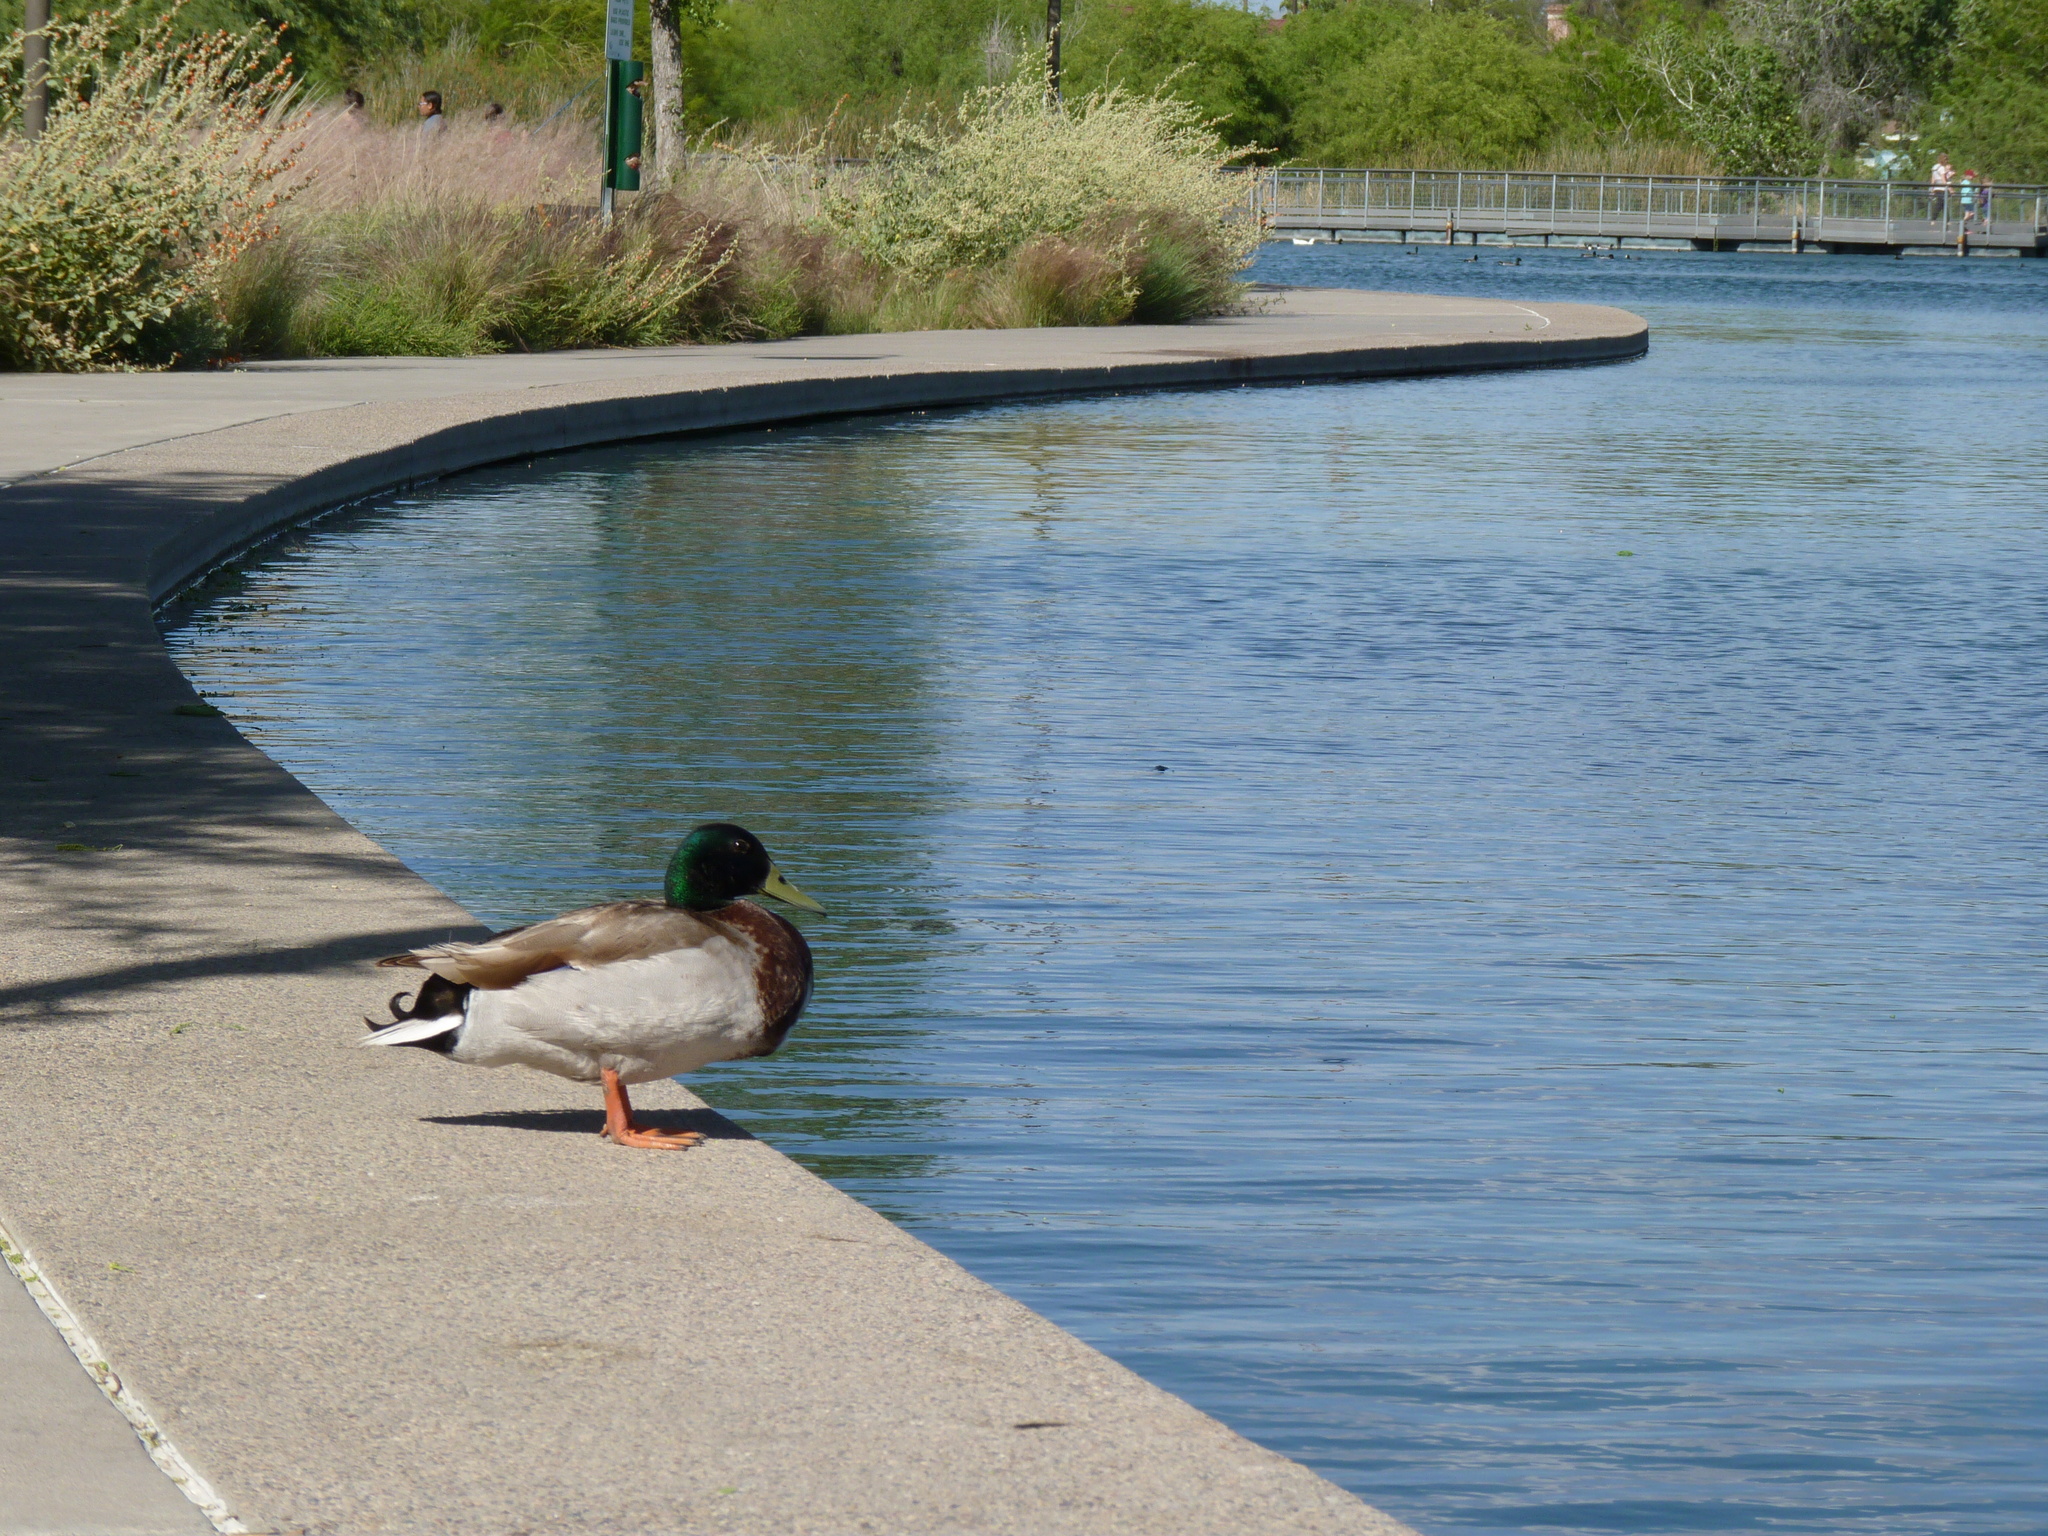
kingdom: Animalia
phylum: Chordata
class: Aves
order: Anseriformes
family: Anatidae
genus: Anas
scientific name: Anas platyrhynchos
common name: Mallard
